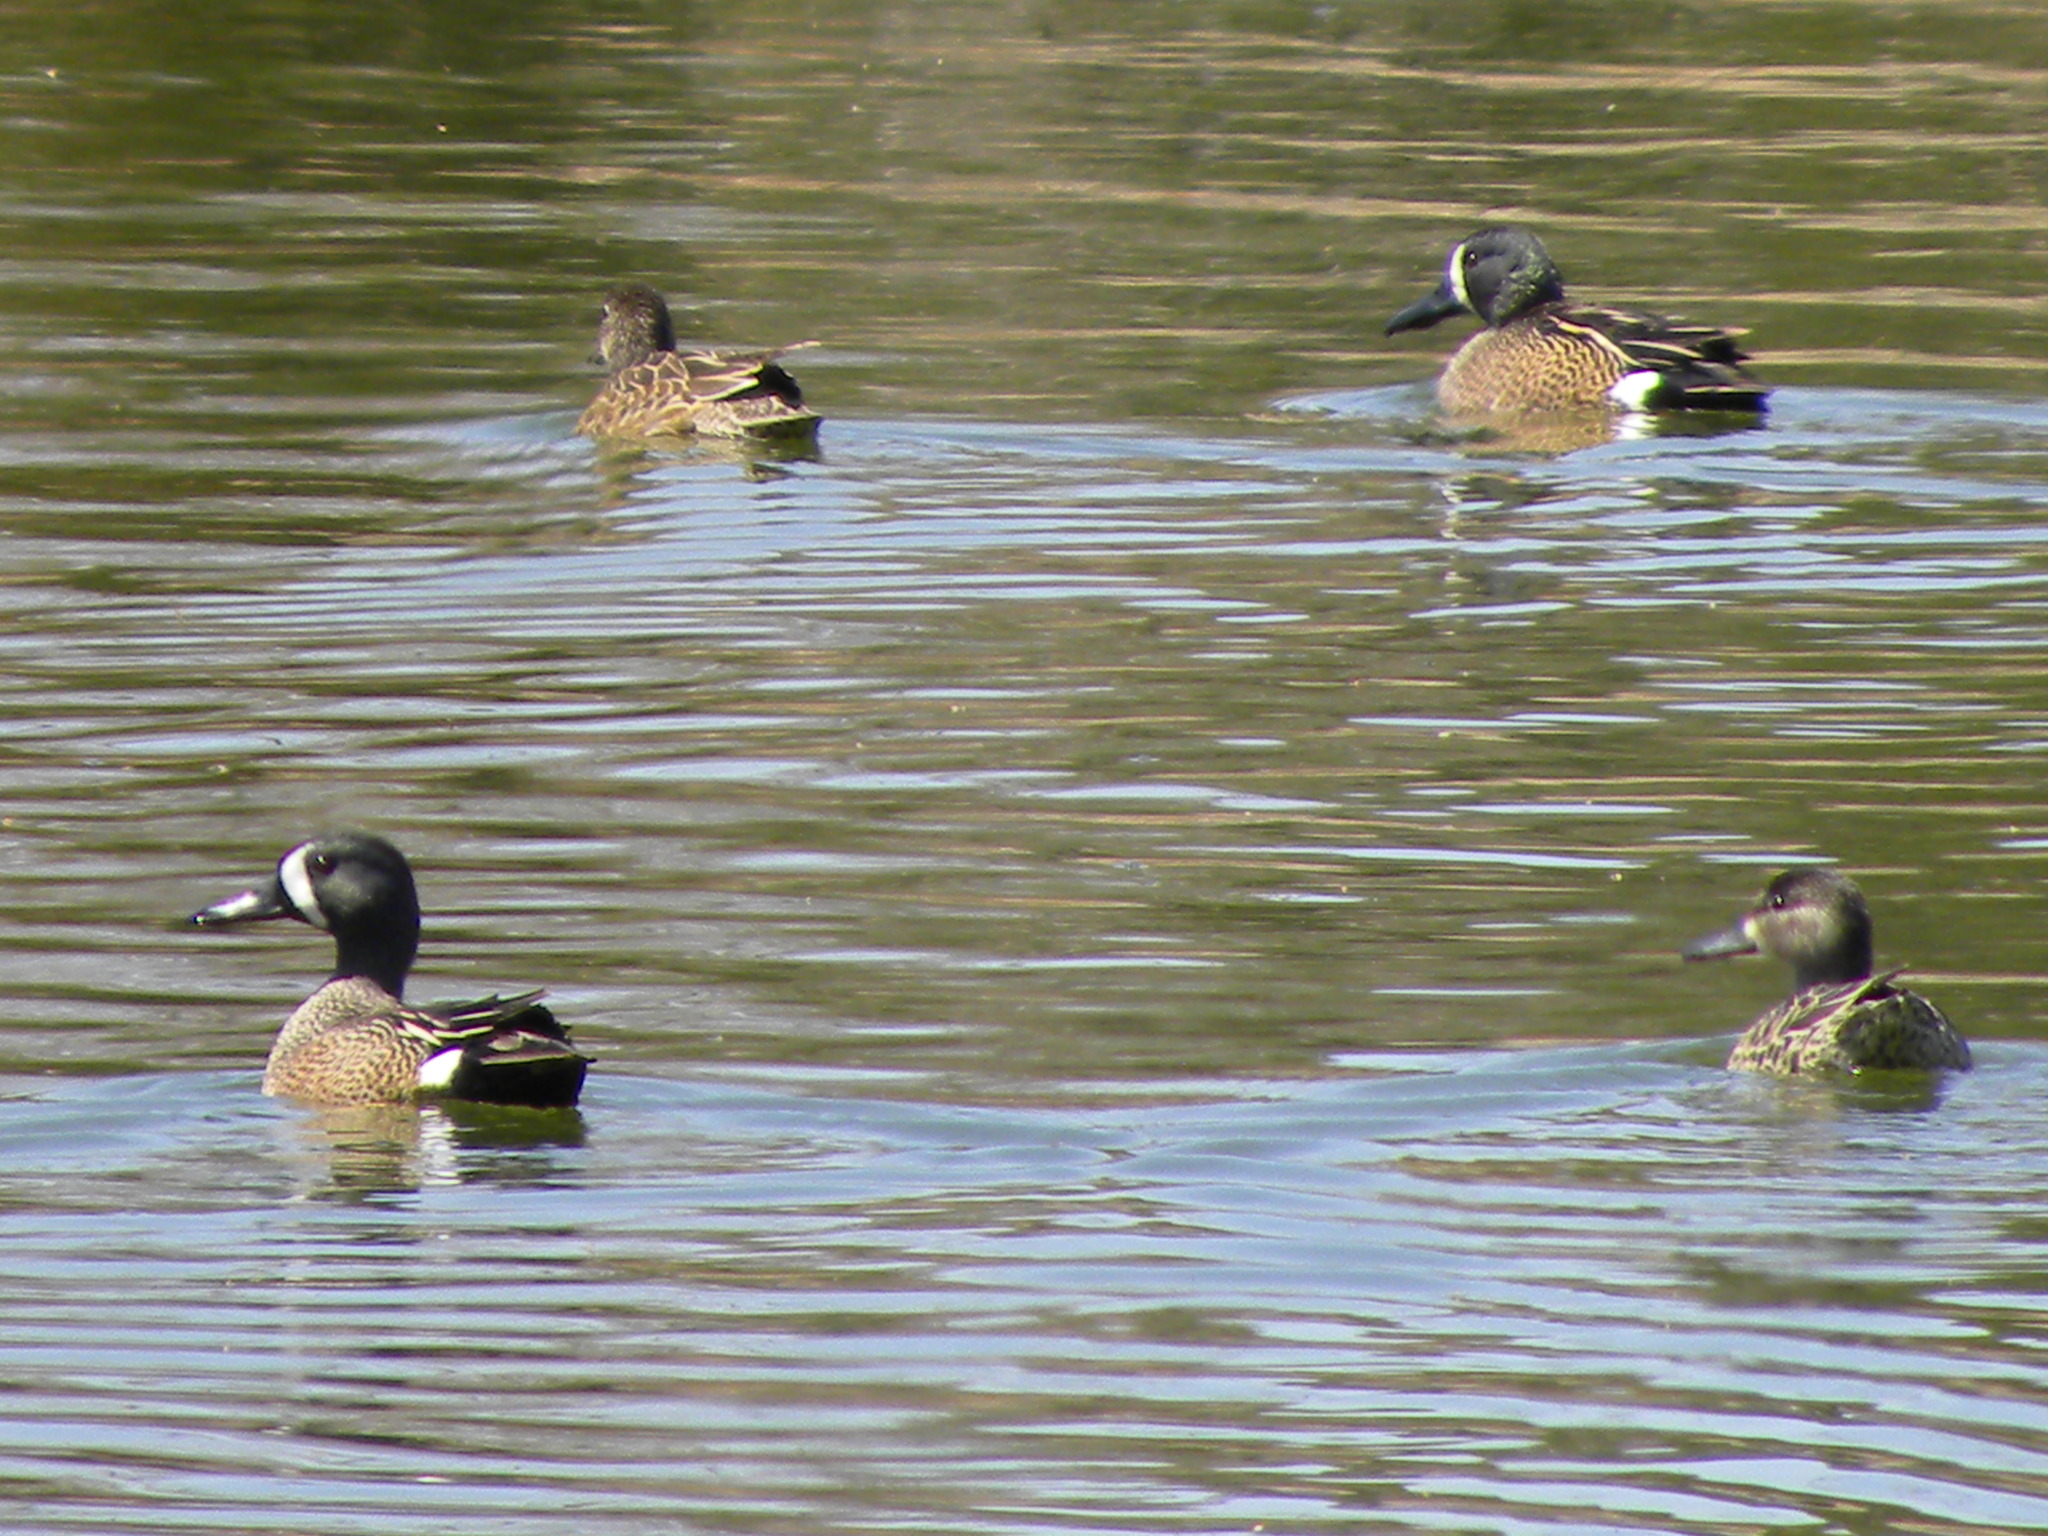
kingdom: Animalia
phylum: Chordata
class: Aves
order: Anseriformes
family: Anatidae
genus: Spatula
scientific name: Spatula discors
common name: Blue-winged teal
